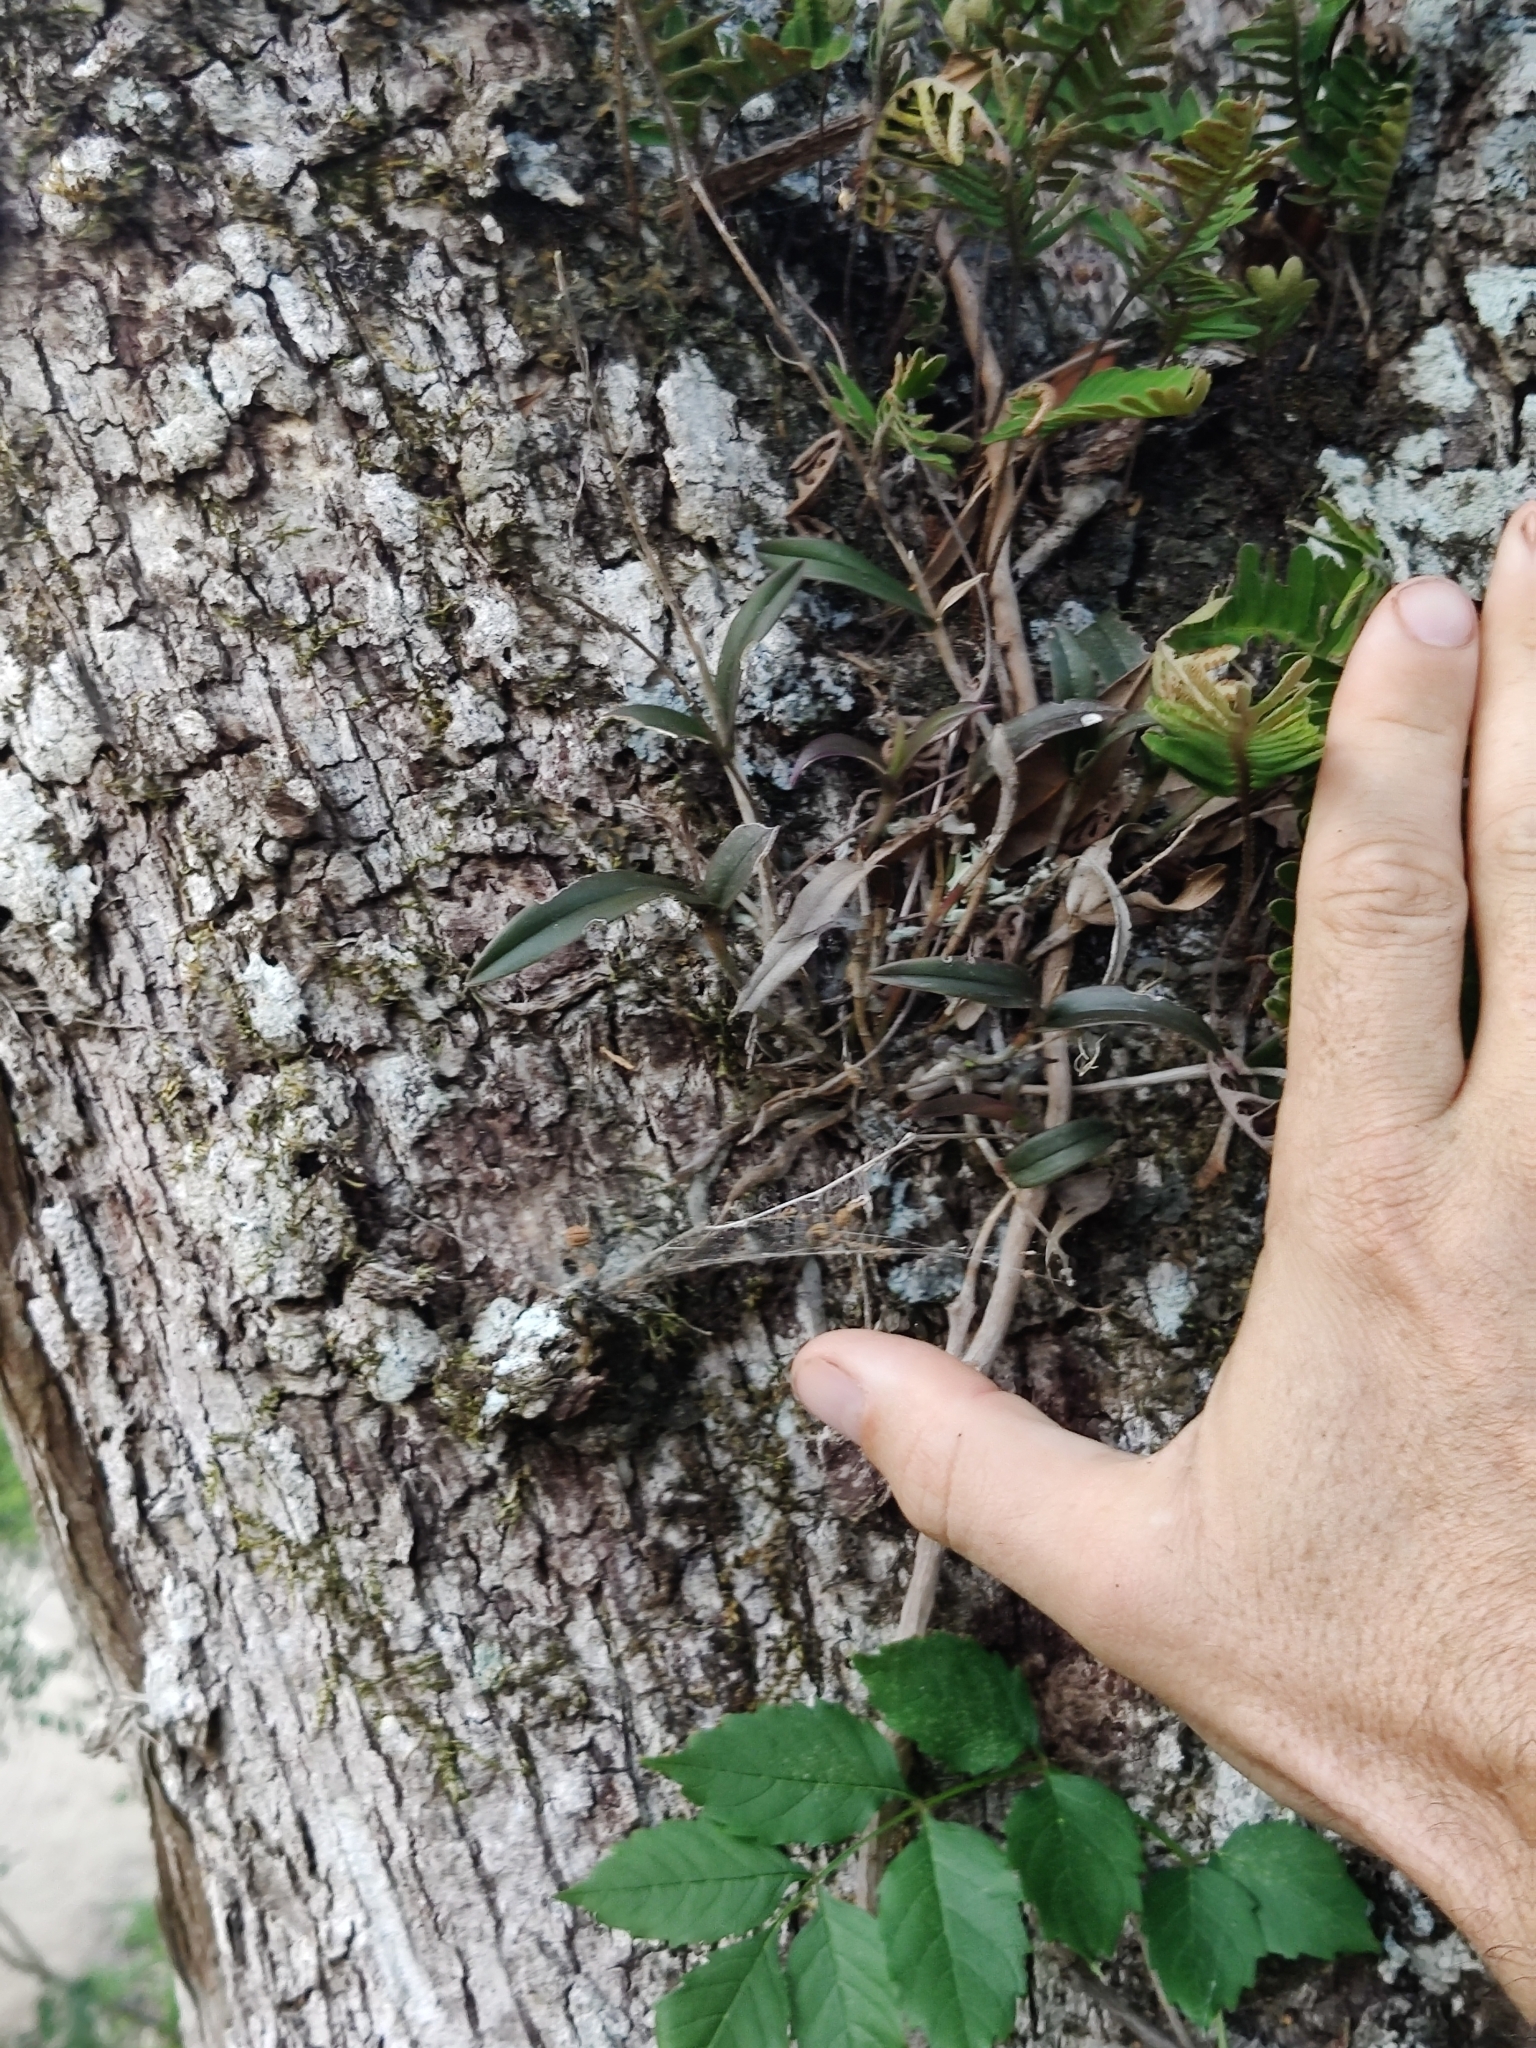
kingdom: Plantae
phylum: Tracheophyta
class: Liliopsida
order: Asparagales
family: Orchidaceae
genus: Epidendrum
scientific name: Epidendrum conopseum
